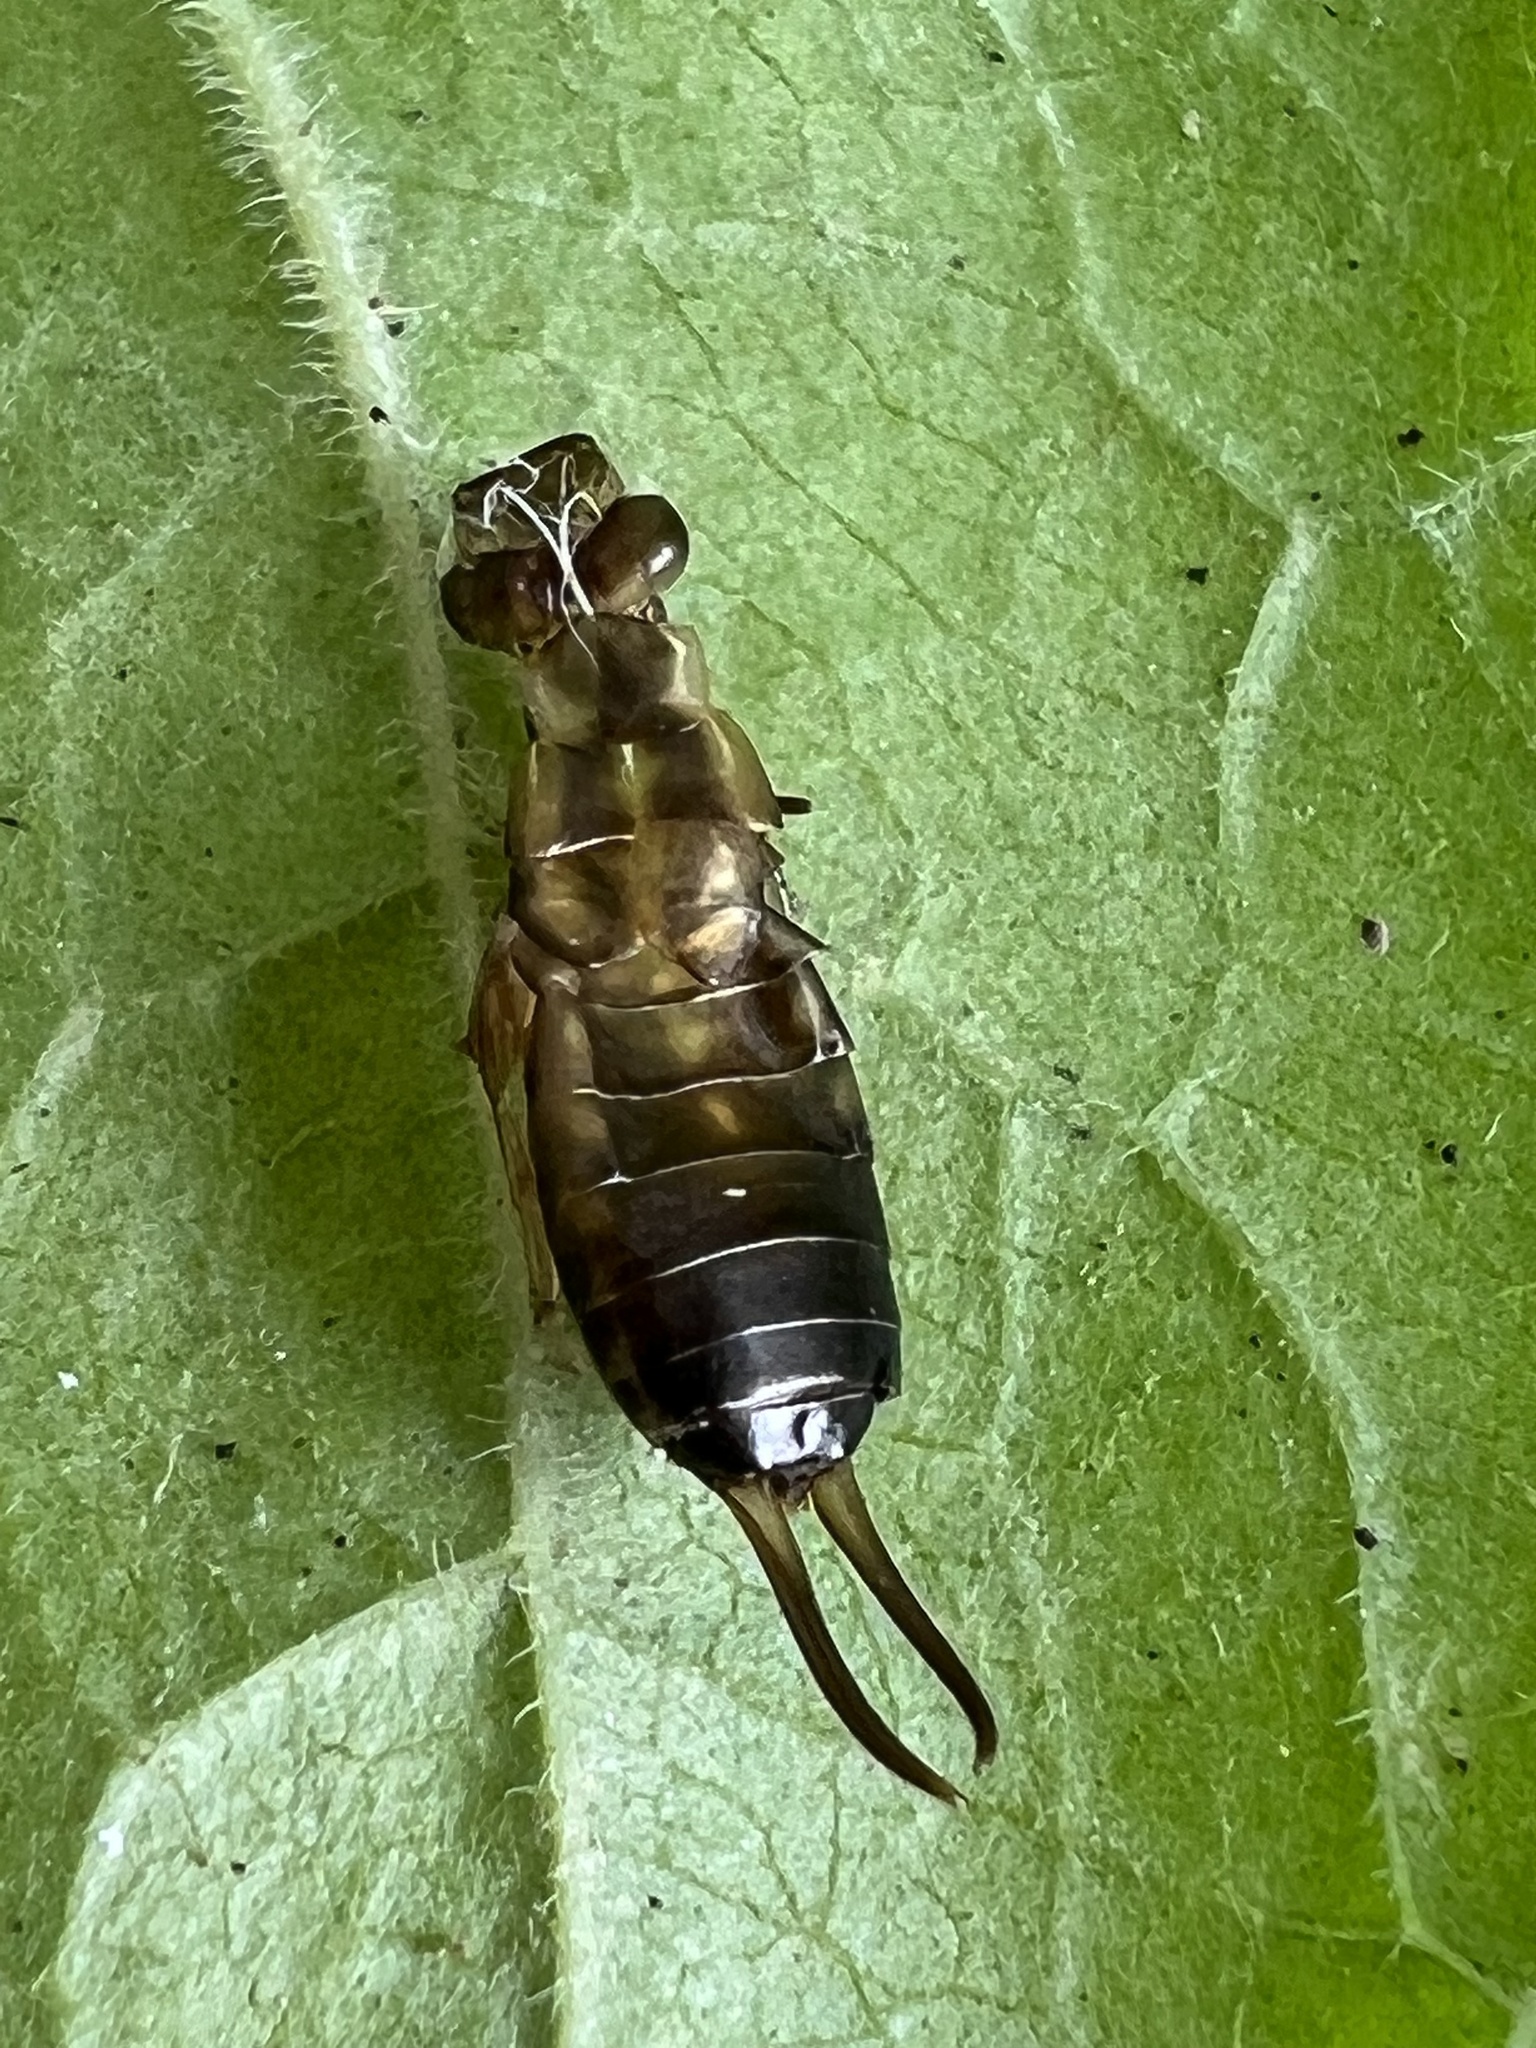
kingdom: Animalia
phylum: Arthropoda
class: Insecta
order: Dermaptera
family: Forficulidae
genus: Forficula
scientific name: Forficula
